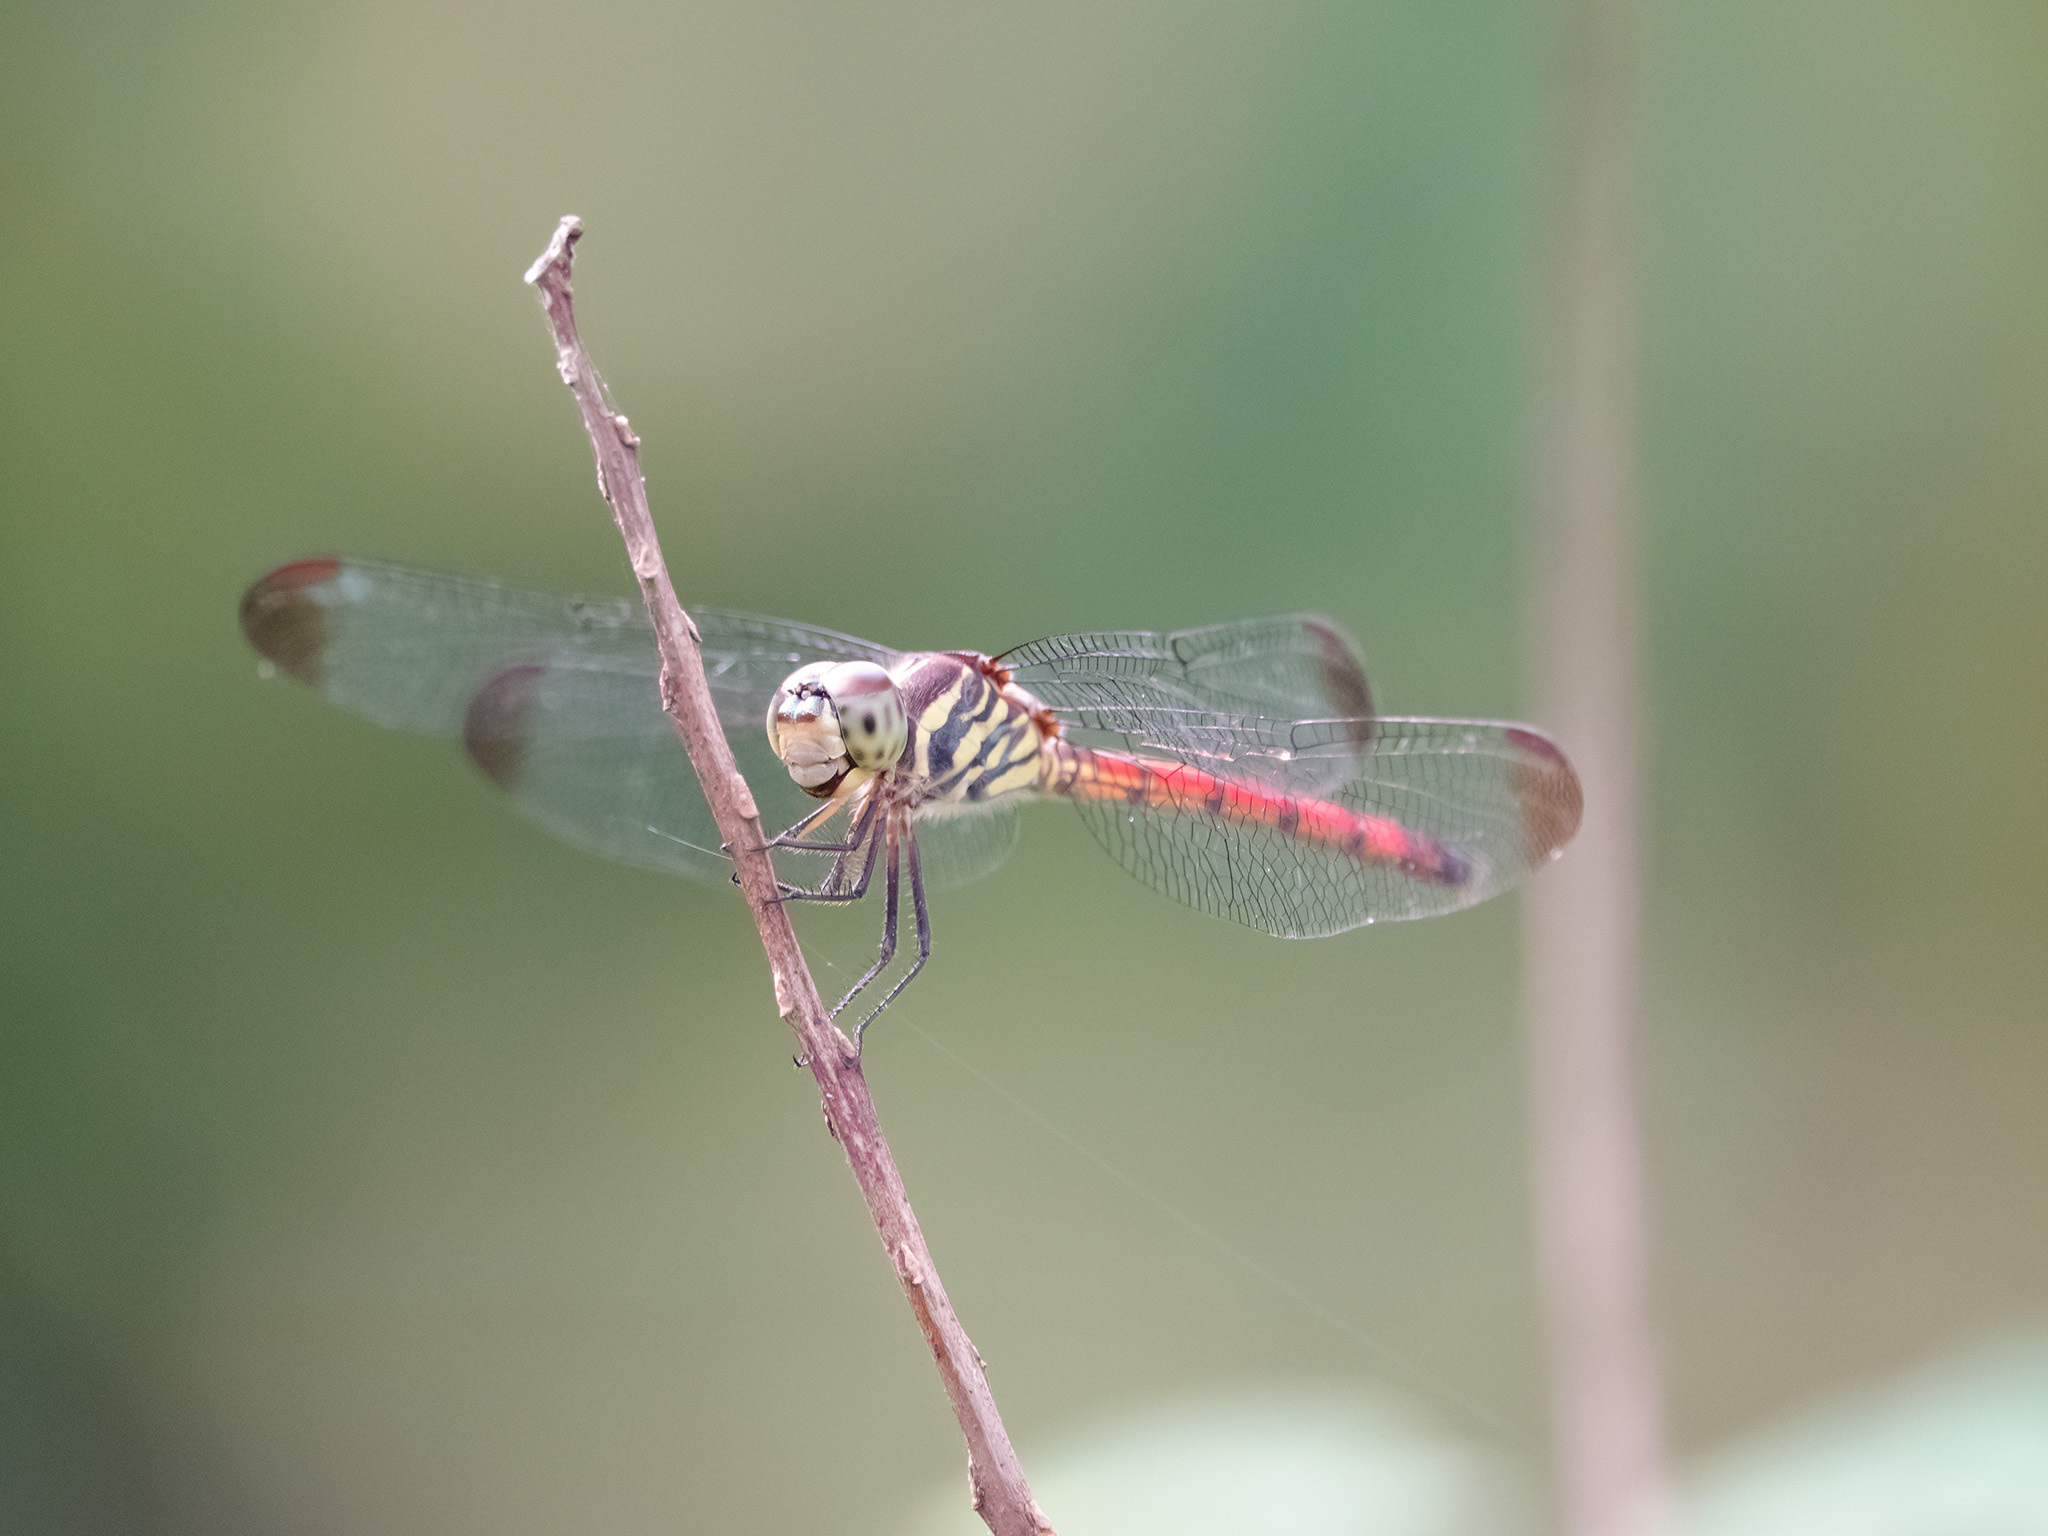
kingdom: Animalia
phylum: Arthropoda
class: Insecta
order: Odonata
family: Libellulidae
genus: Lathrecista
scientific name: Lathrecista asiatica
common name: Scarlet grenadier
